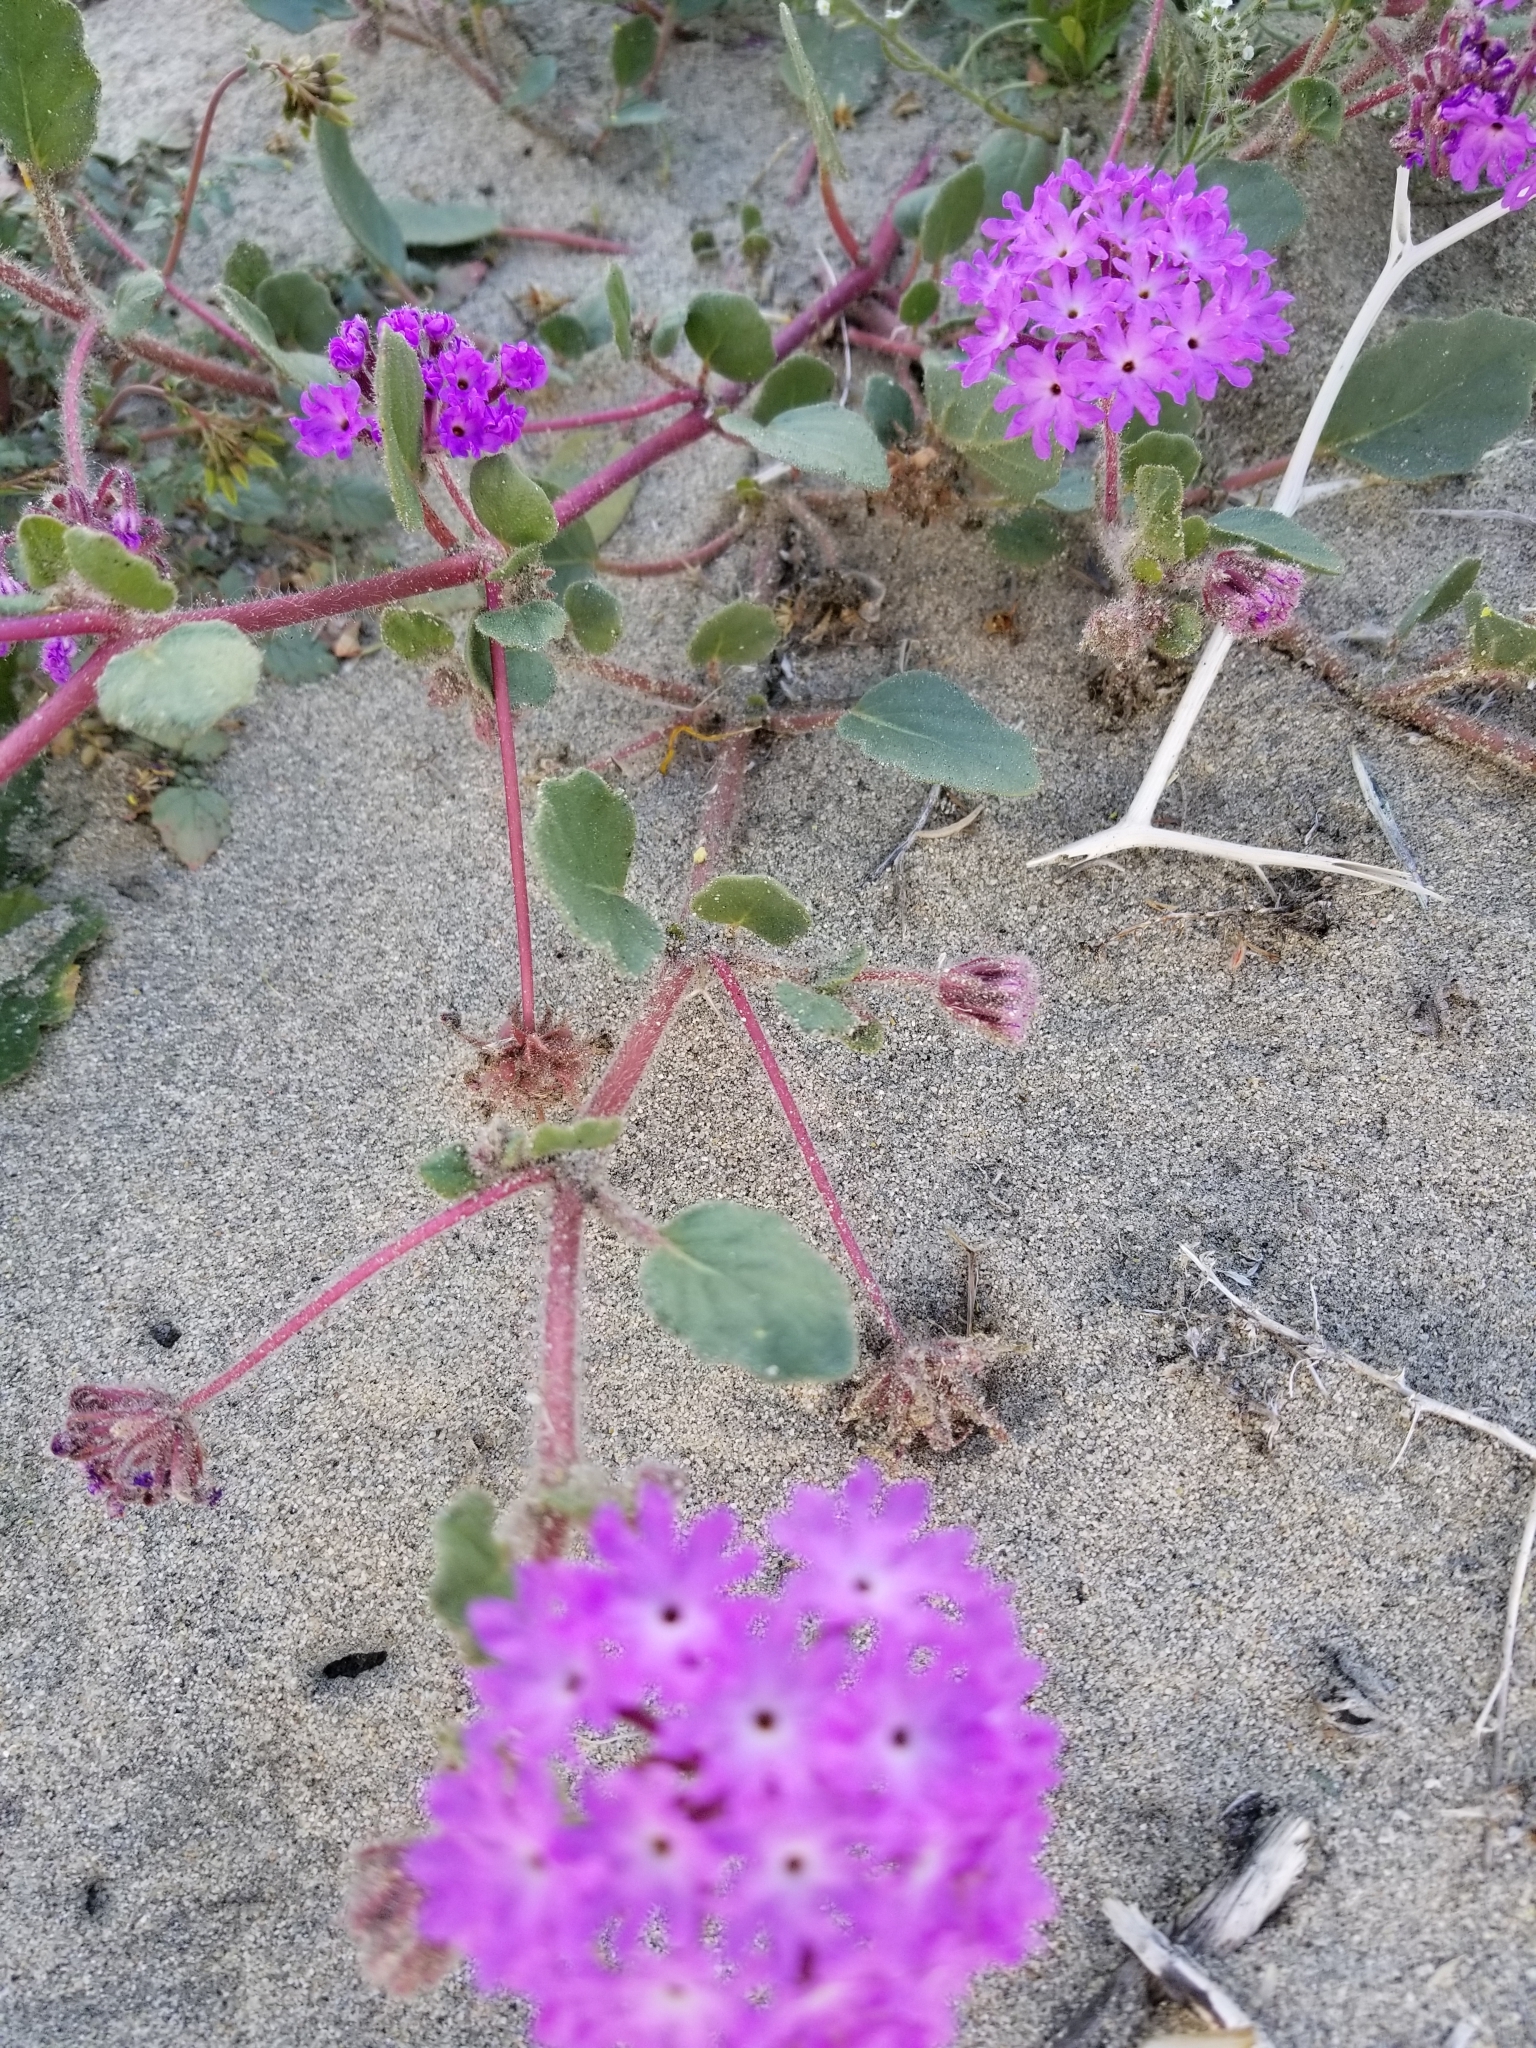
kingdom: Plantae
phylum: Tracheophyta
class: Magnoliopsida
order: Caryophyllales
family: Nyctaginaceae
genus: Abronia
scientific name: Abronia villosa
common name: Desert sand-verbena
